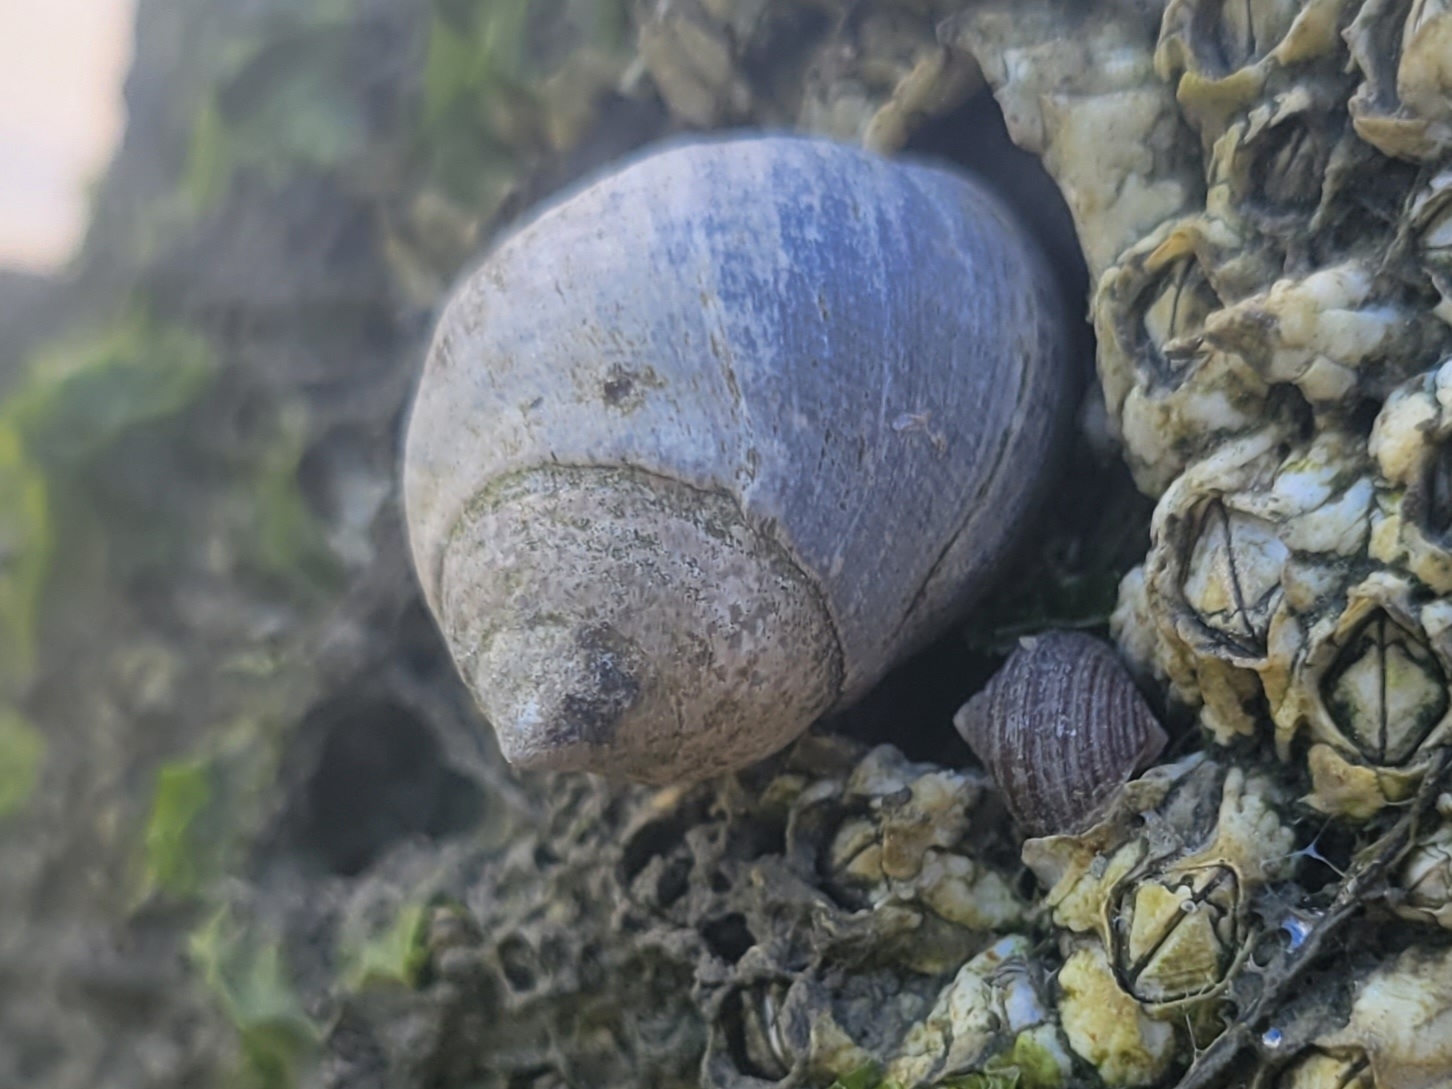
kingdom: Animalia
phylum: Mollusca
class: Gastropoda
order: Littorinimorpha
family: Littorinidae
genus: Littorina
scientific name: Littorina littorea
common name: Common periwinkle
